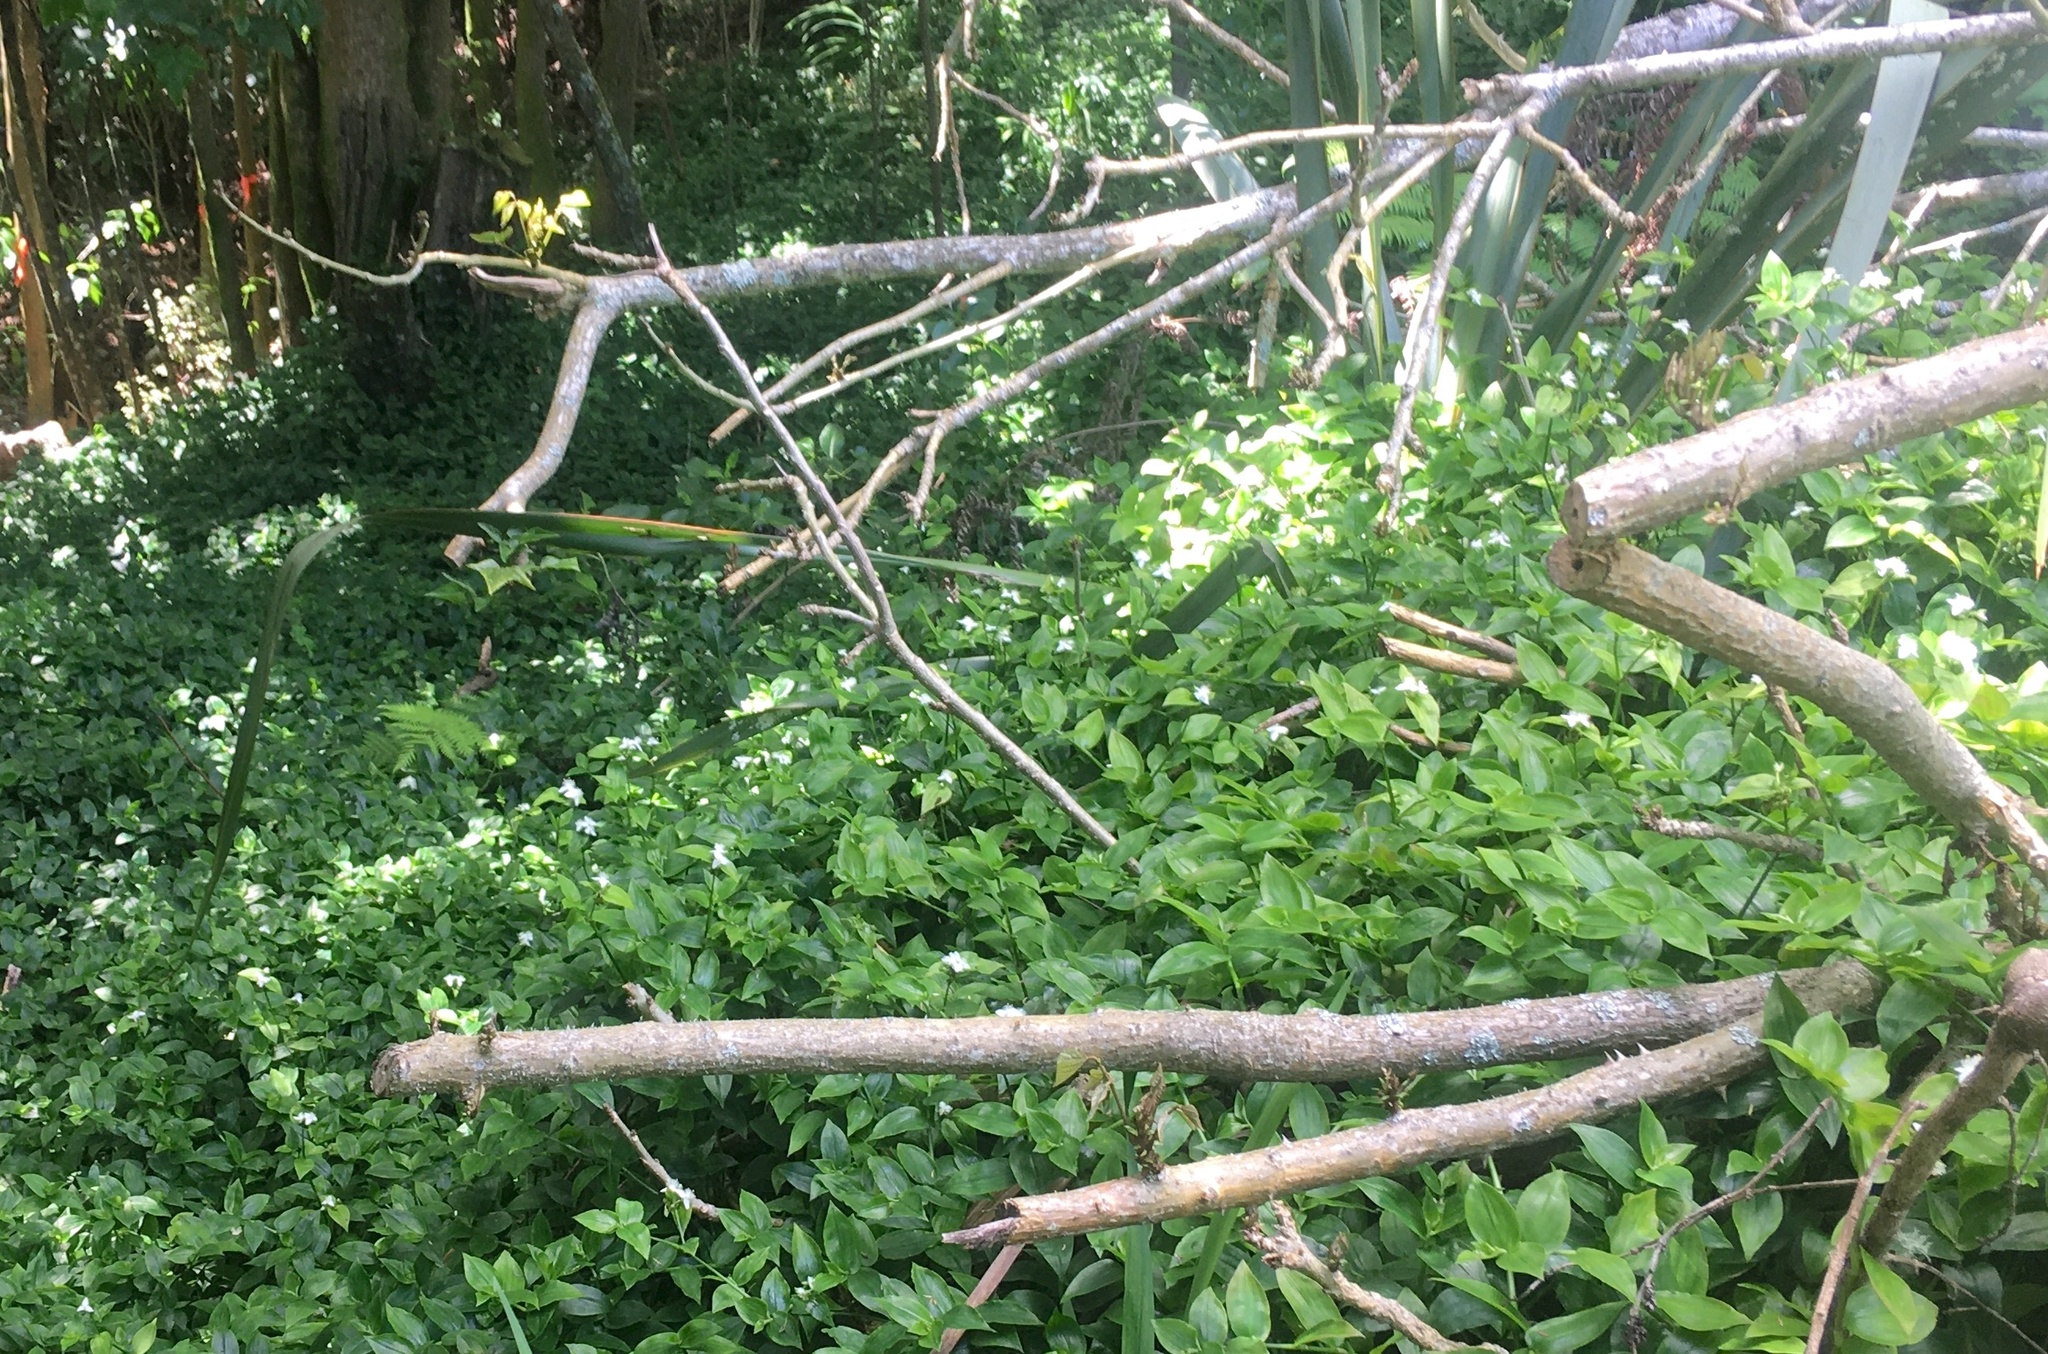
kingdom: Plantae
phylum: Tracheophyta
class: Liliopsida
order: Commelinales
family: Commelinaceae
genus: Tradescantia
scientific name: Tradescantia fluminensis
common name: Wandering-jew
